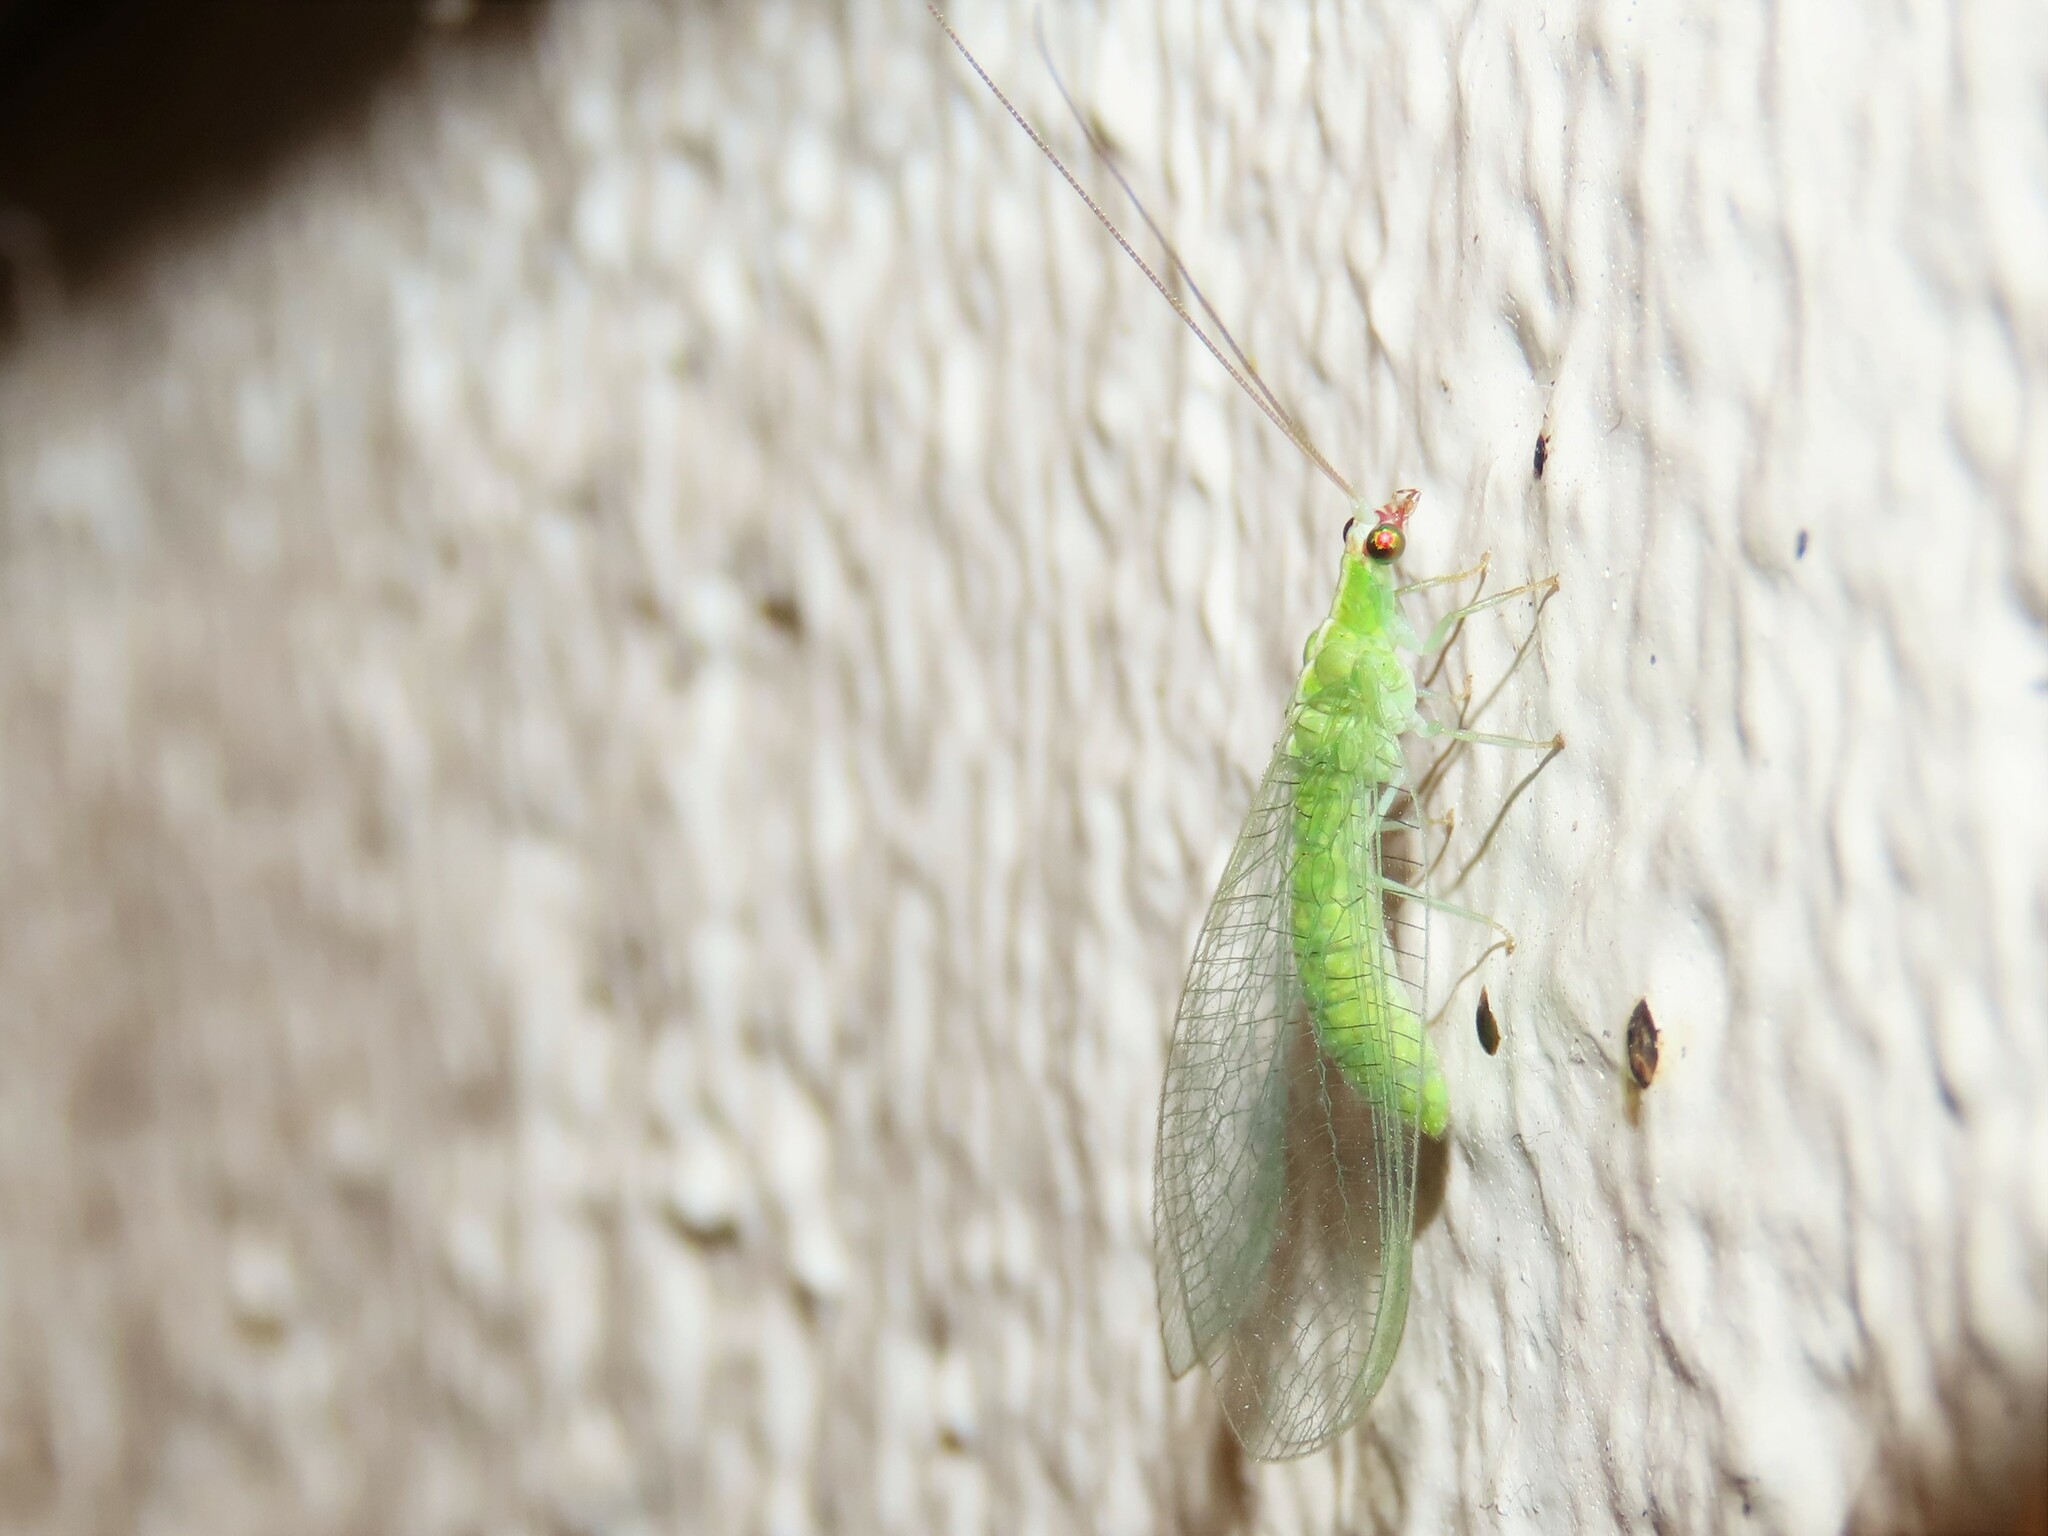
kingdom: Animalia
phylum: Arthropoda
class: Insecta
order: Neuroptera
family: Chrysopidae
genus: Chrysopodes
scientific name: Chrysopodes collaris
